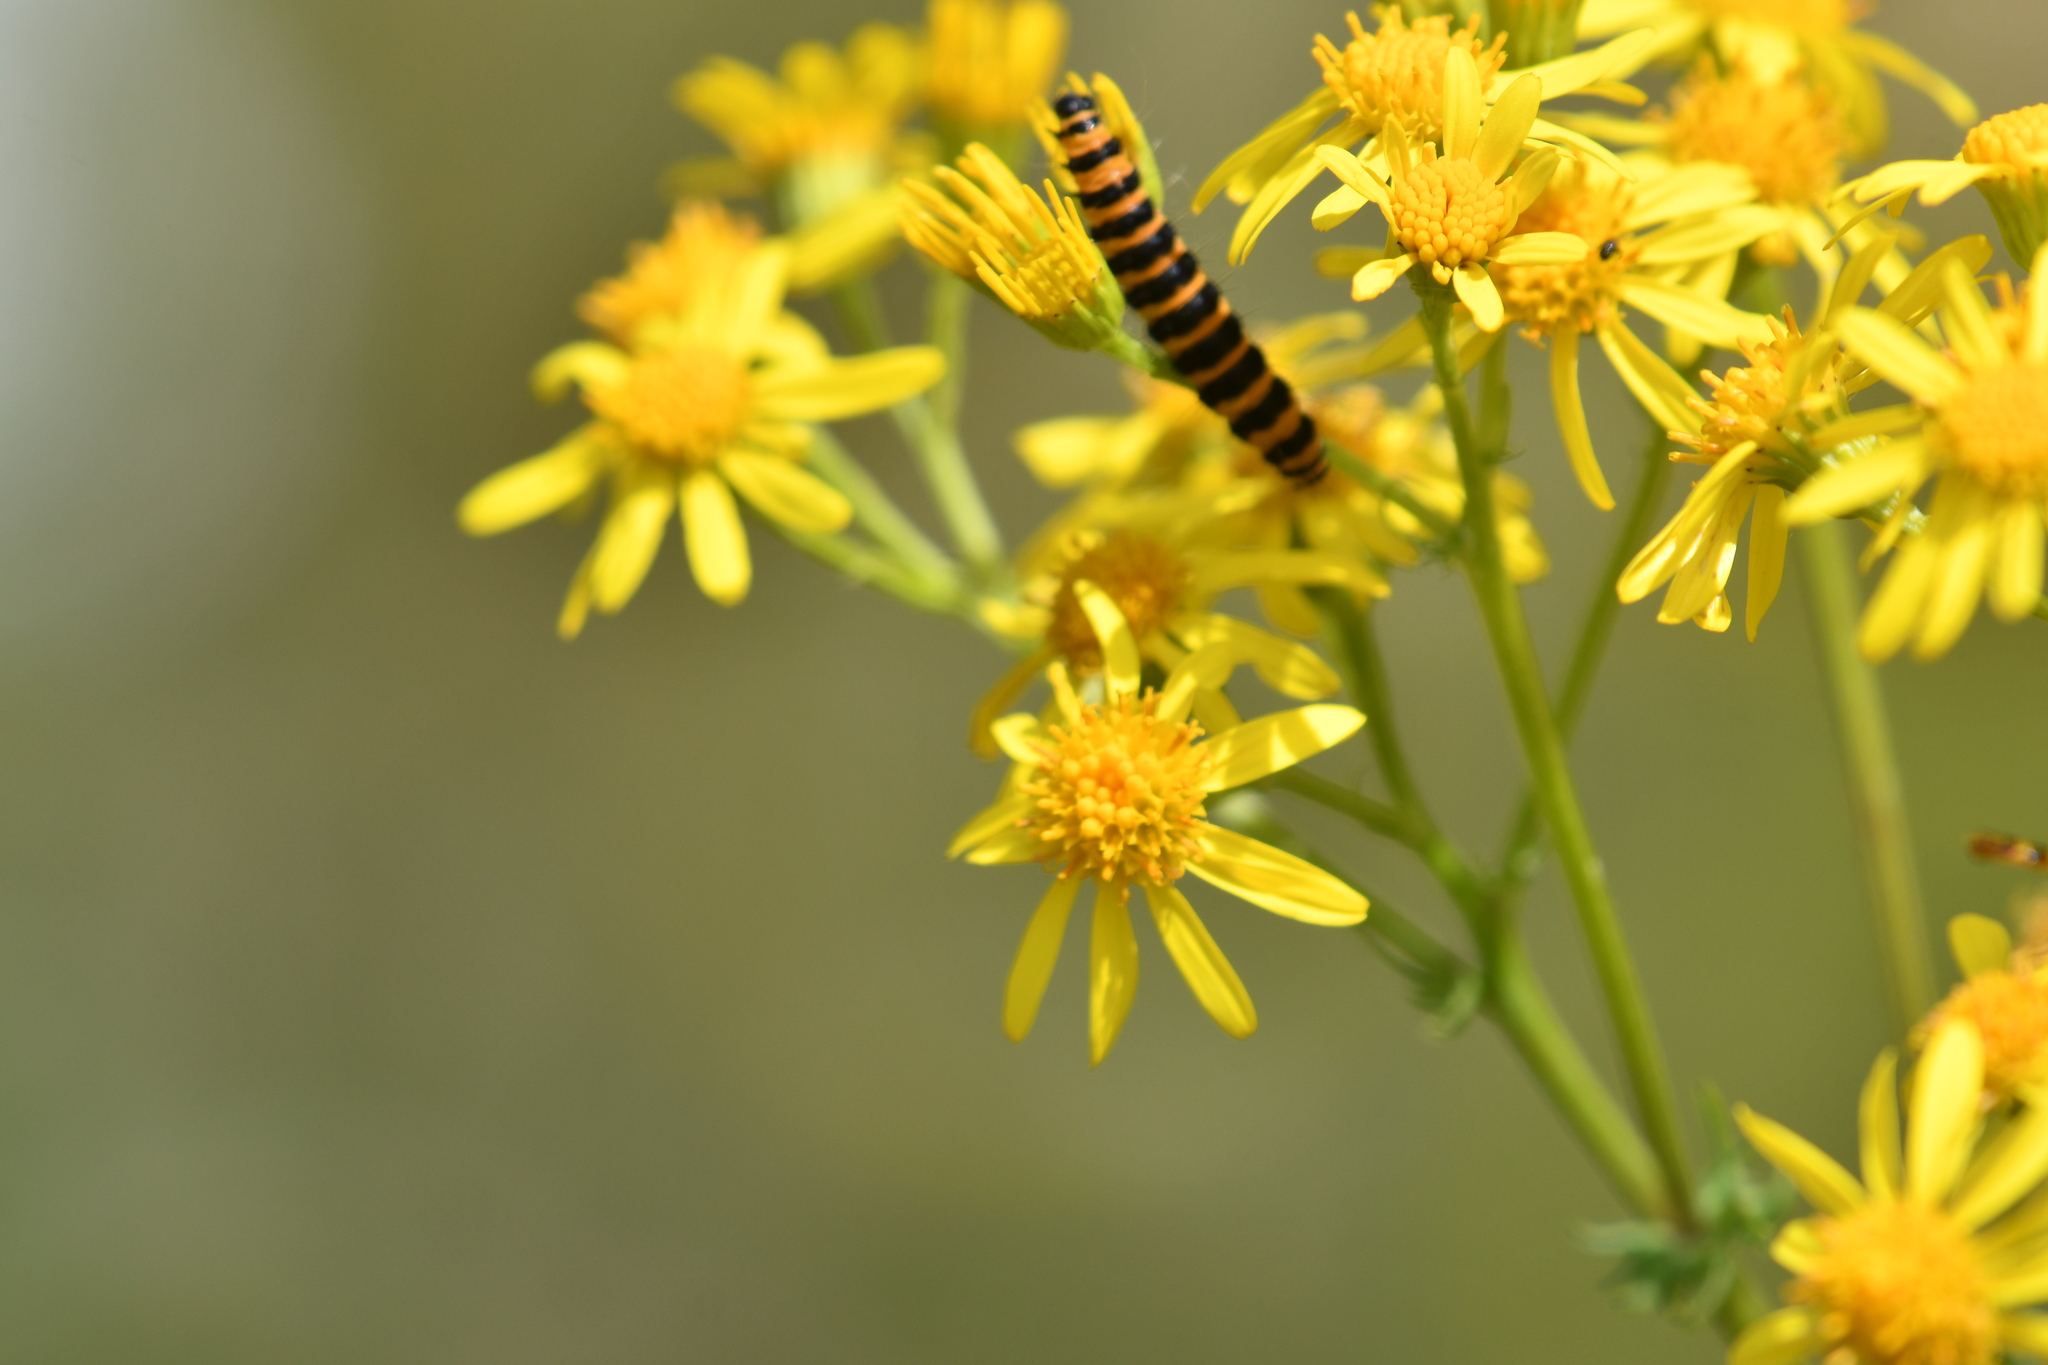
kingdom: Animalia
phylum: Arthropoda
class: Insecta
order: Lepidoptera
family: Erebidae
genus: Tyria
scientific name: Tyria jacobaeae
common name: Cinnabar
